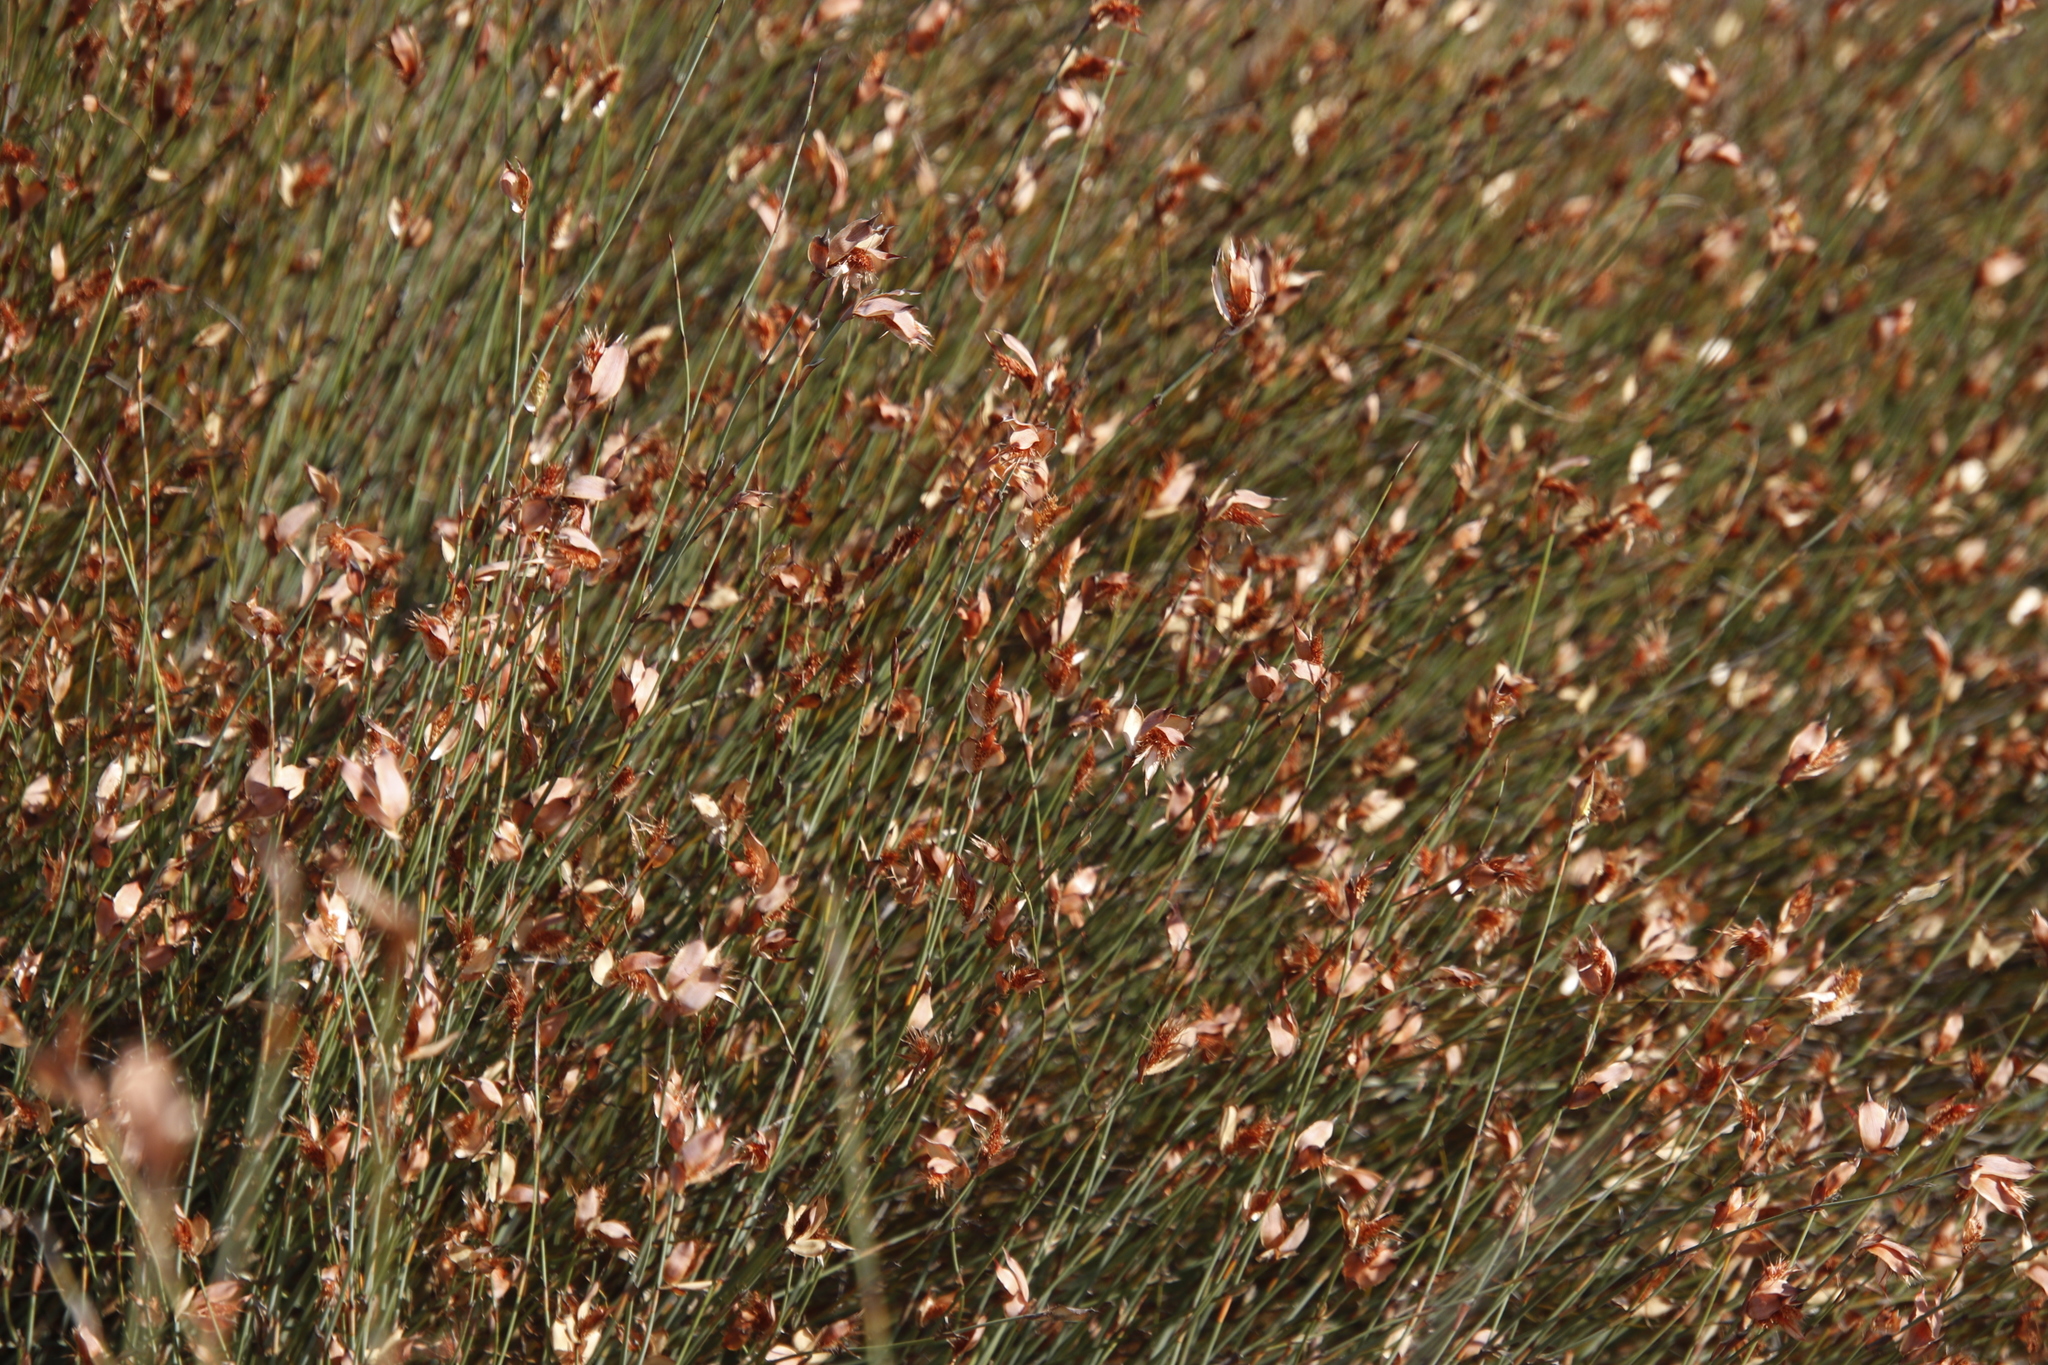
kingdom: Plantae
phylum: Tracheophyta
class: Liliopsida
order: Poales
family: Restionaceae
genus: Willdenowia
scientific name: Willdenowia incurvata
